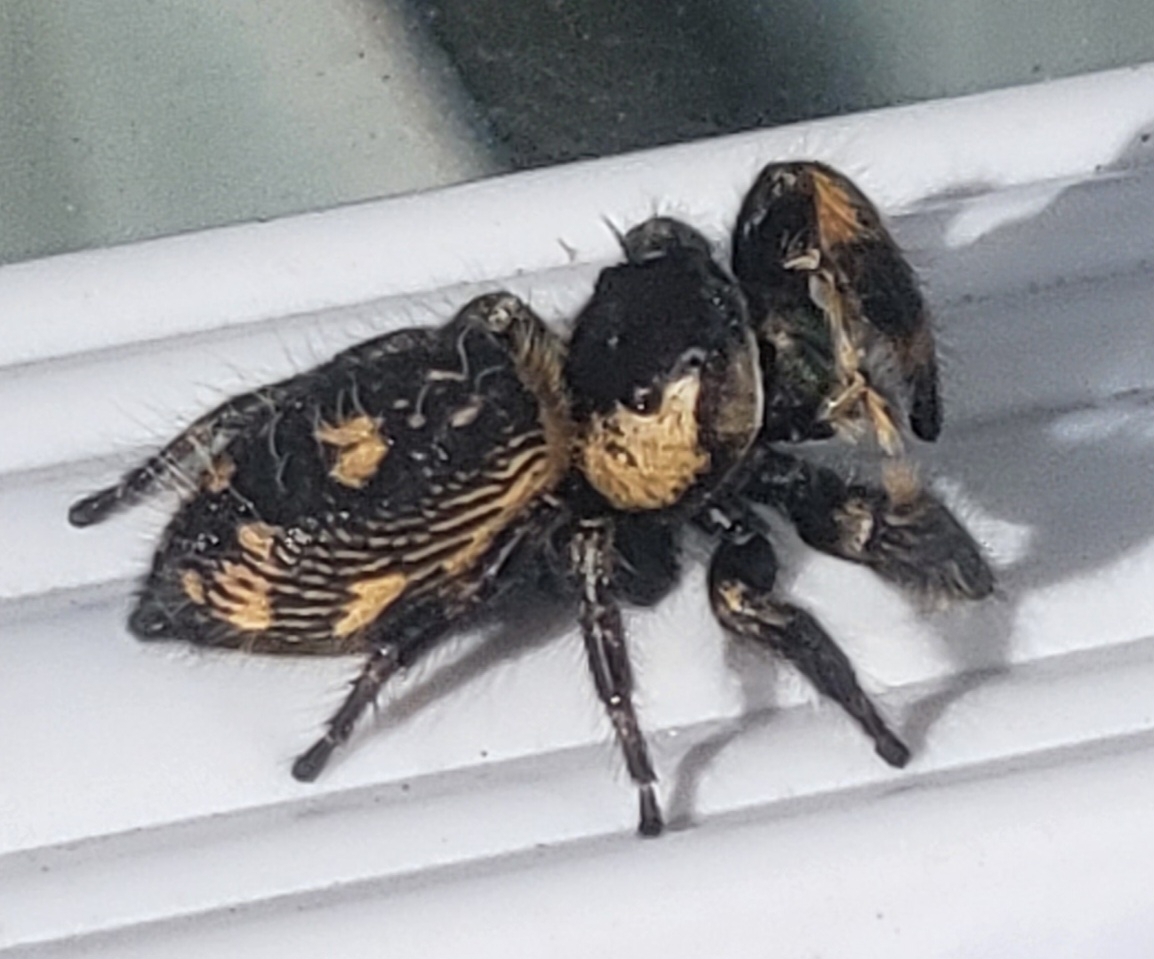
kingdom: Animalia
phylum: Arthropoda
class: Arachnida
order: Araneae
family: Salticidae
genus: Phidippus
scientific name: Phidippus otiosus
